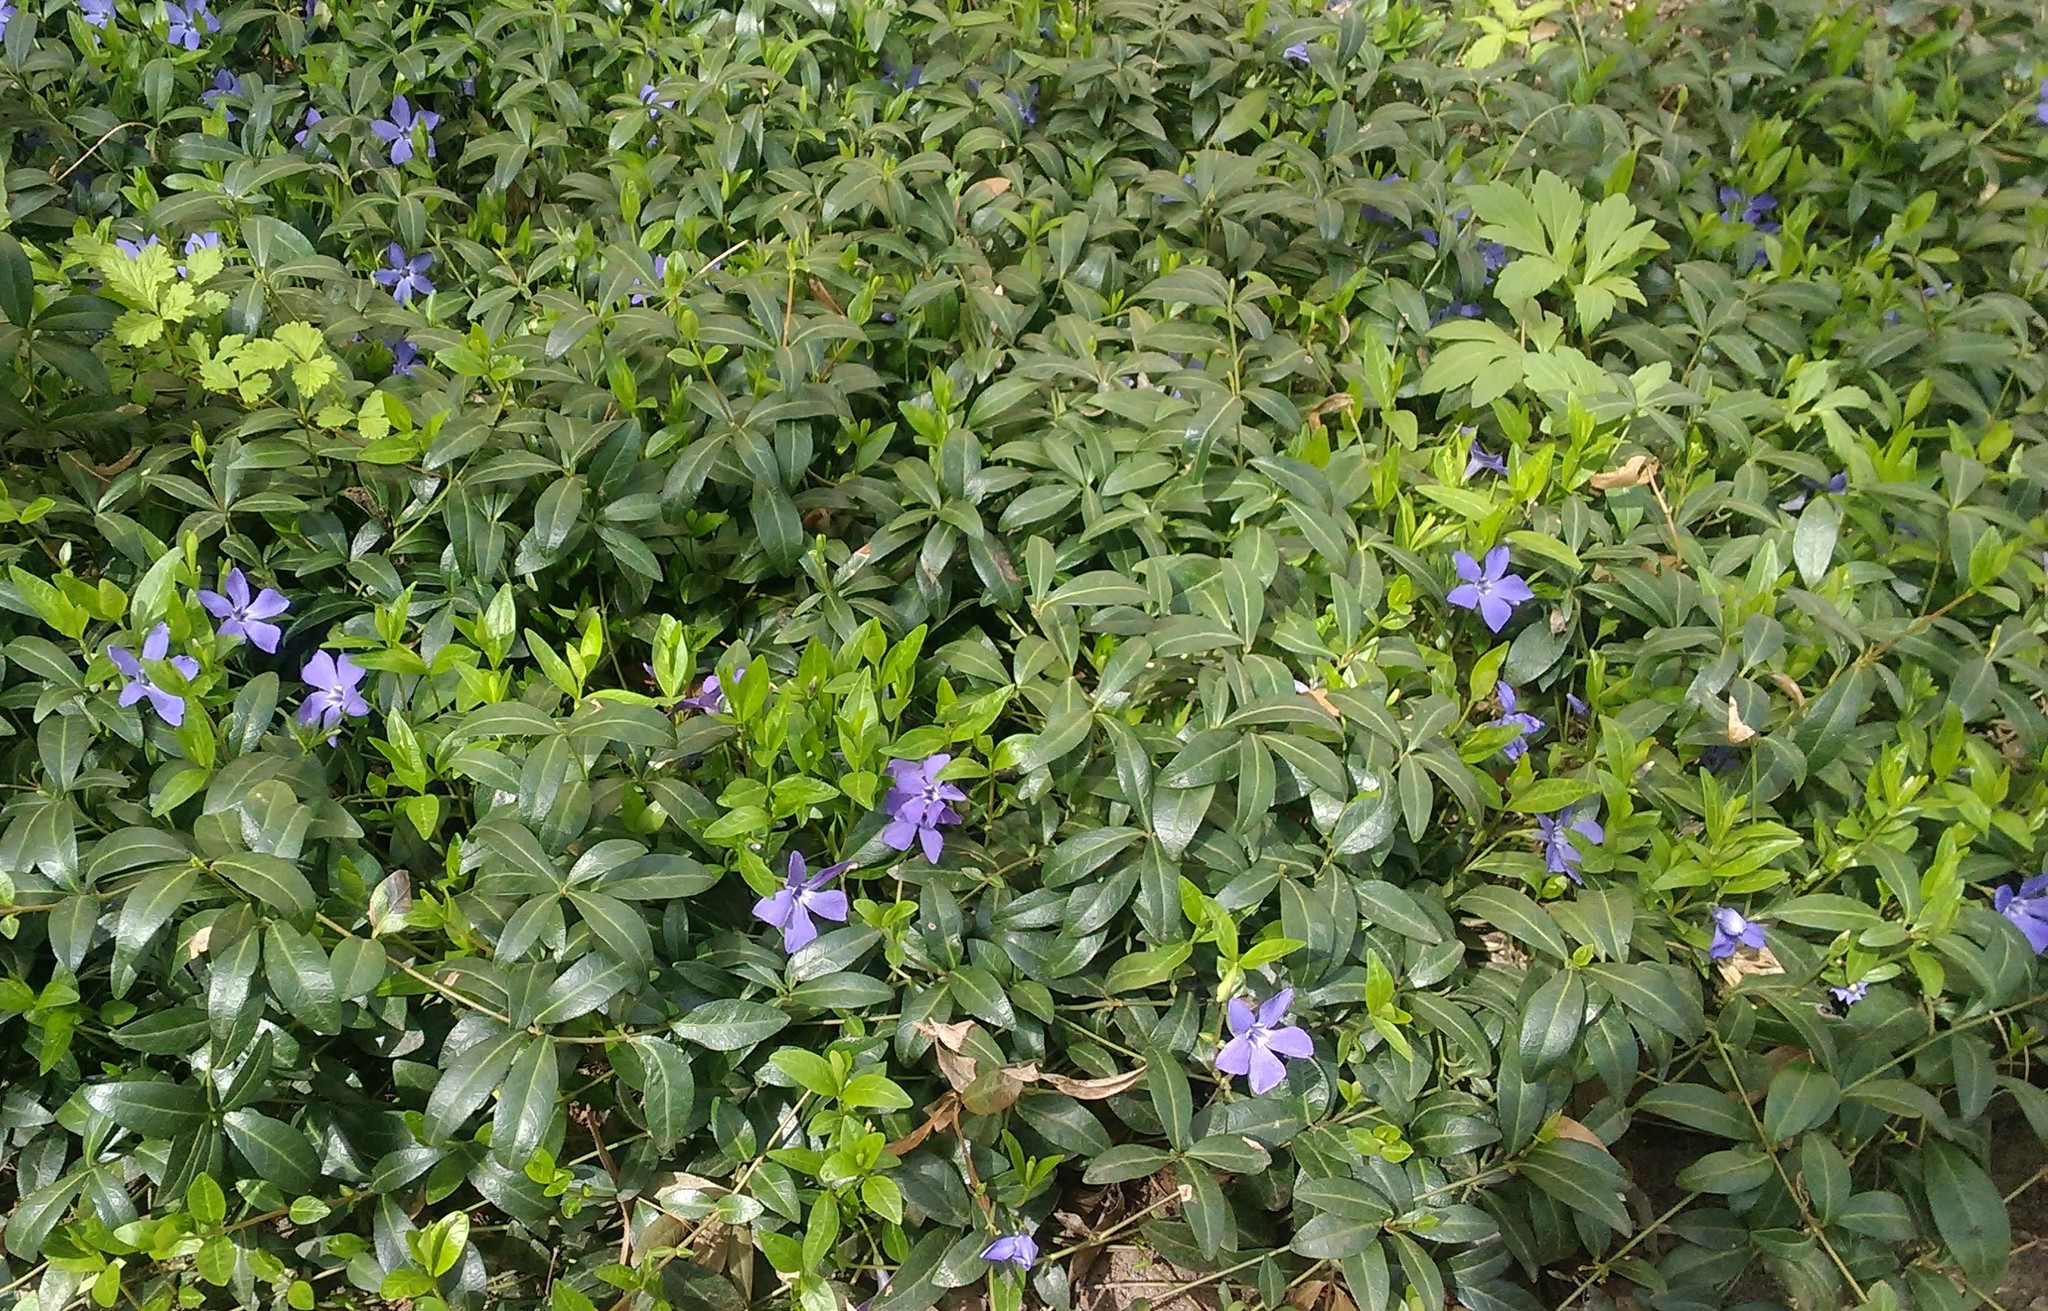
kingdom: Plantae
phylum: Tracheophyta
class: Magnoliopsida
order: Gentianales
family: Apocynaceae
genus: Vinca
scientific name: Vinca minor
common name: Lesser periwinkle
